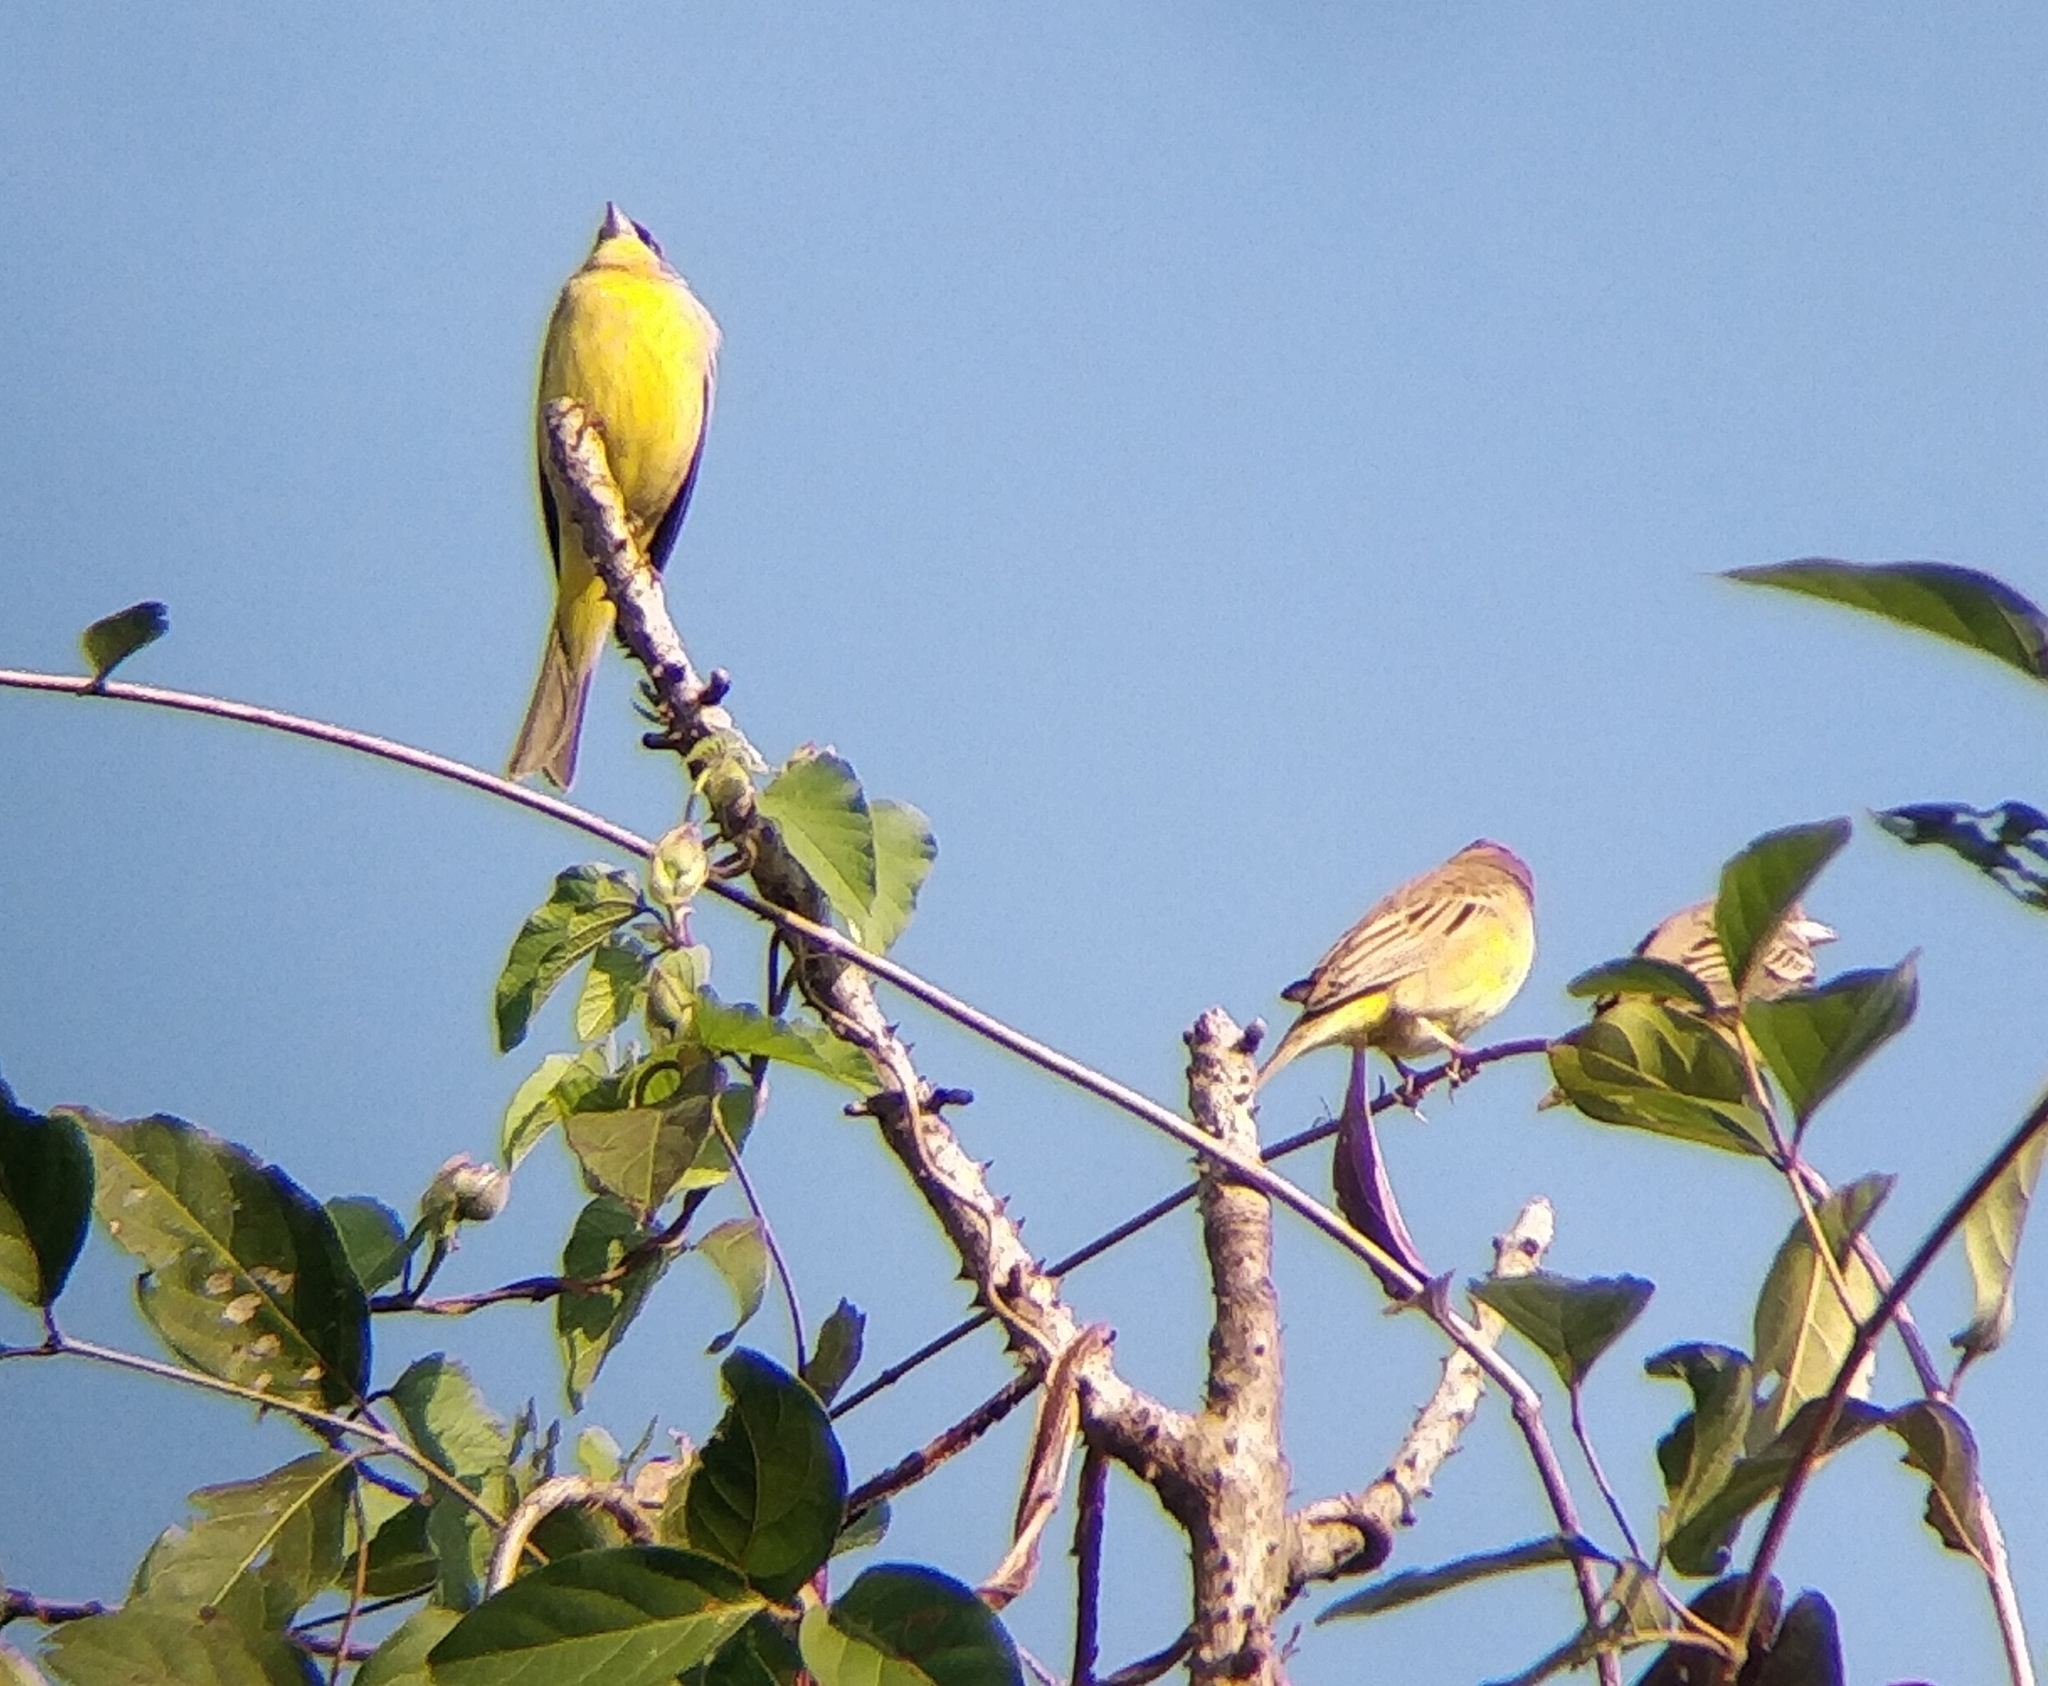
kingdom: Animalia
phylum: Chordata
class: Aves
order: Passeriformes
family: Emberizidae
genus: Emberiza
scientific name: Emberiza melanocephala
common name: Black-headed bunting
